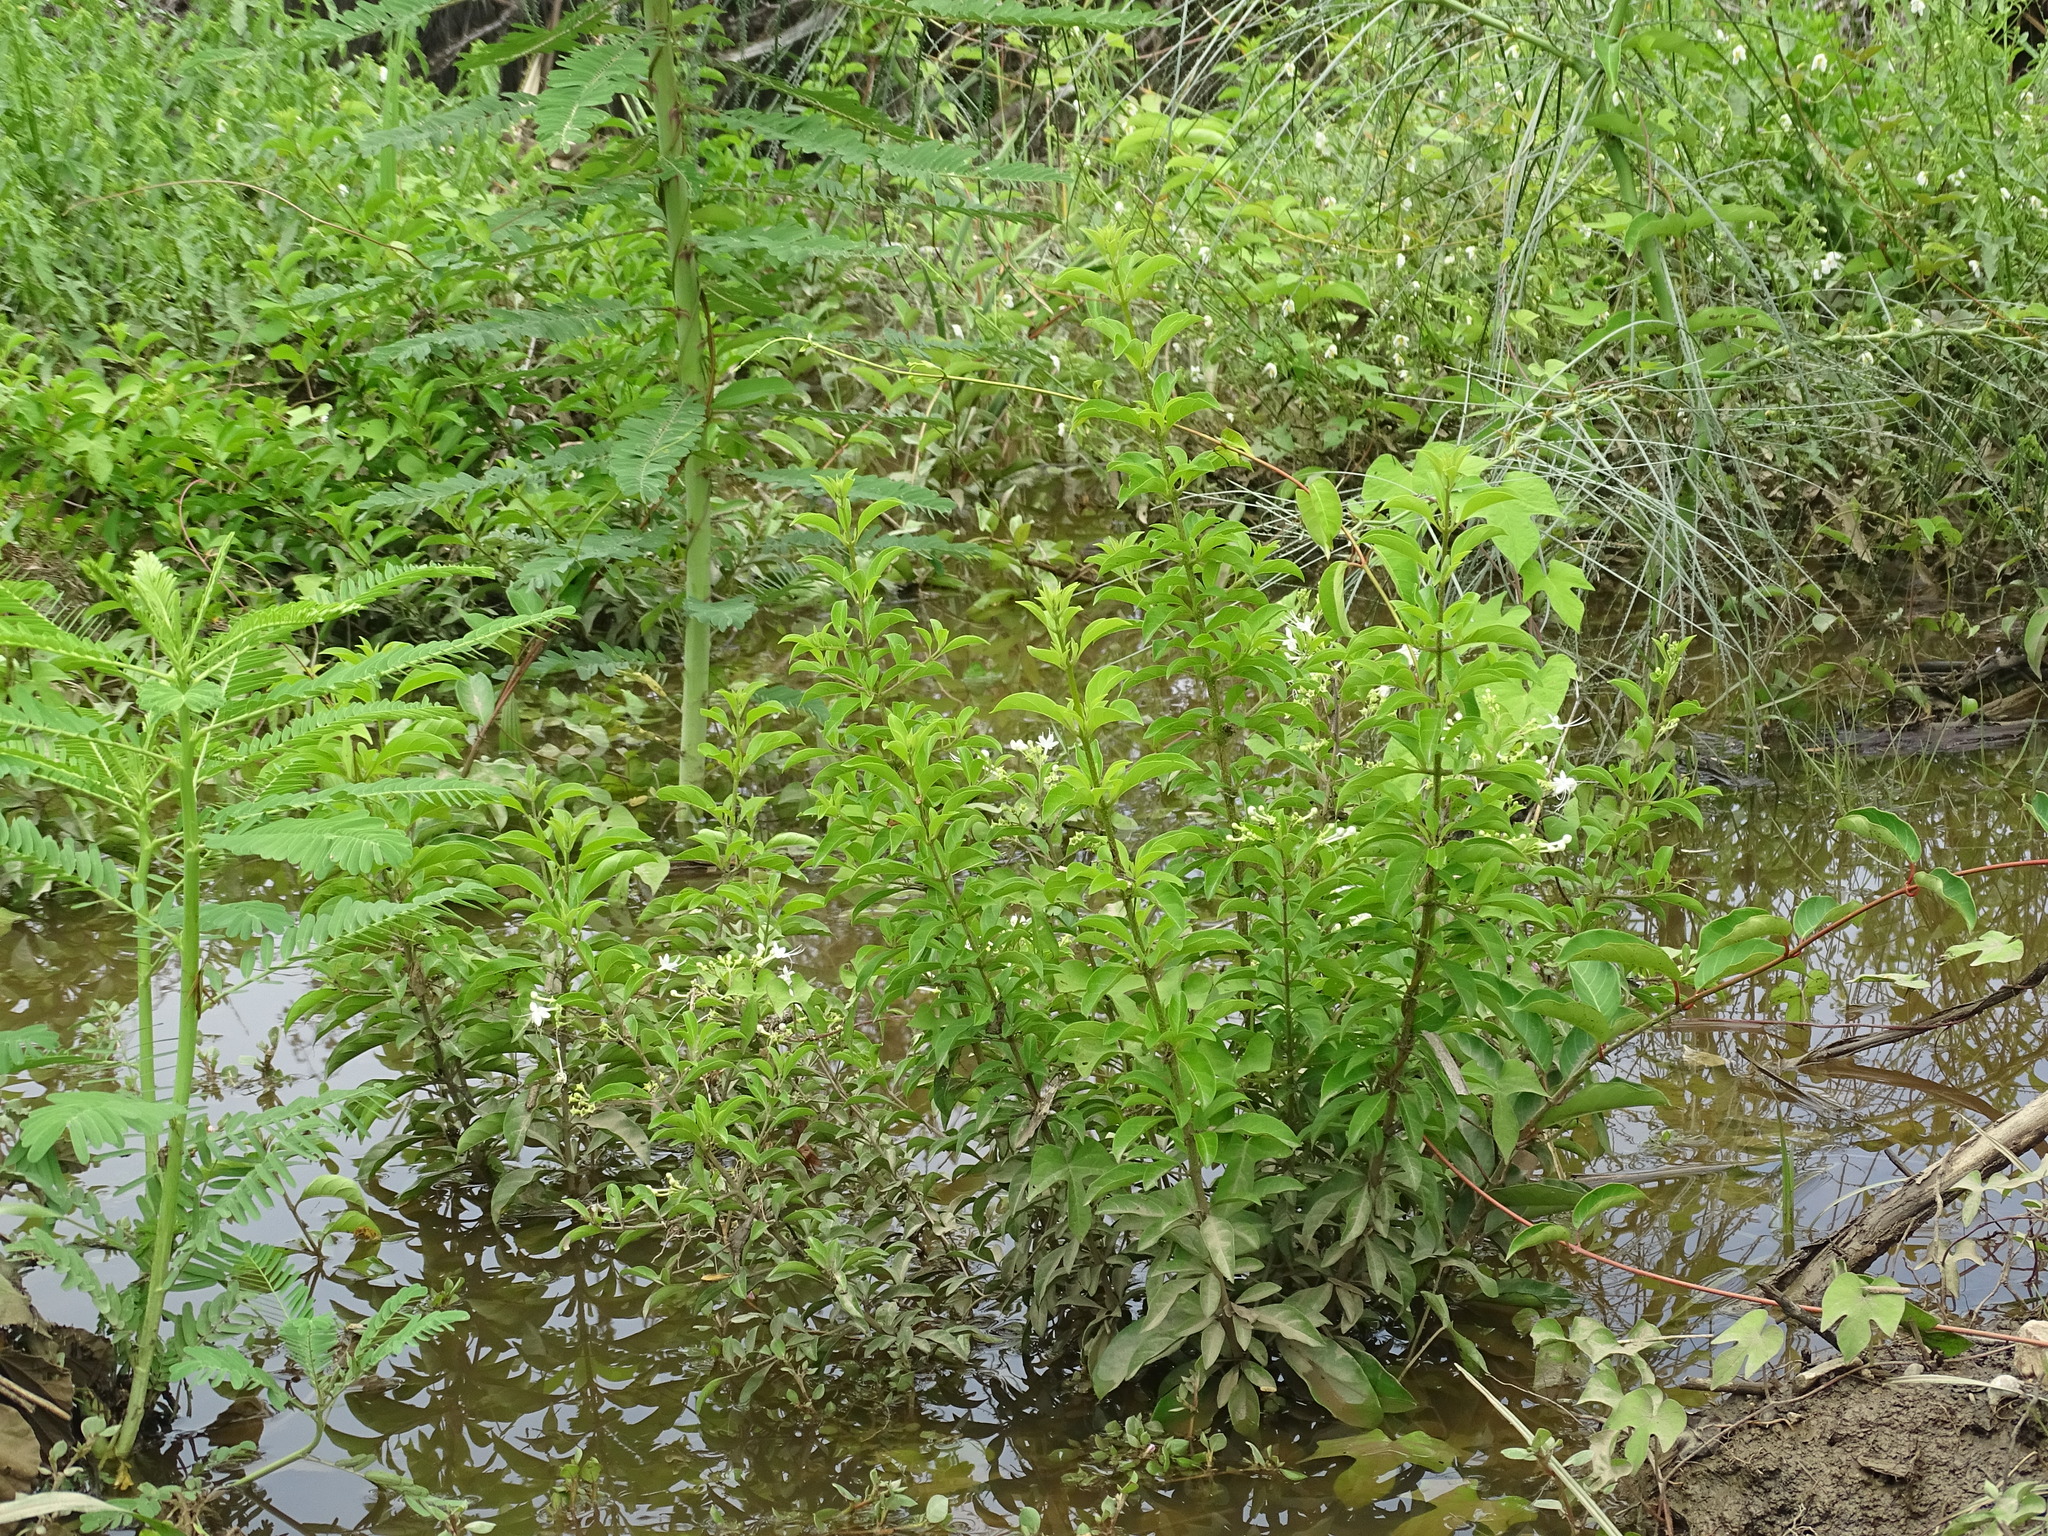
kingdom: Plantae
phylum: Tracheophyta
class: Magnoliopsida
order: Lamiales
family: Lamiaceae
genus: Volkameria
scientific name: Volkameria ligustrina
